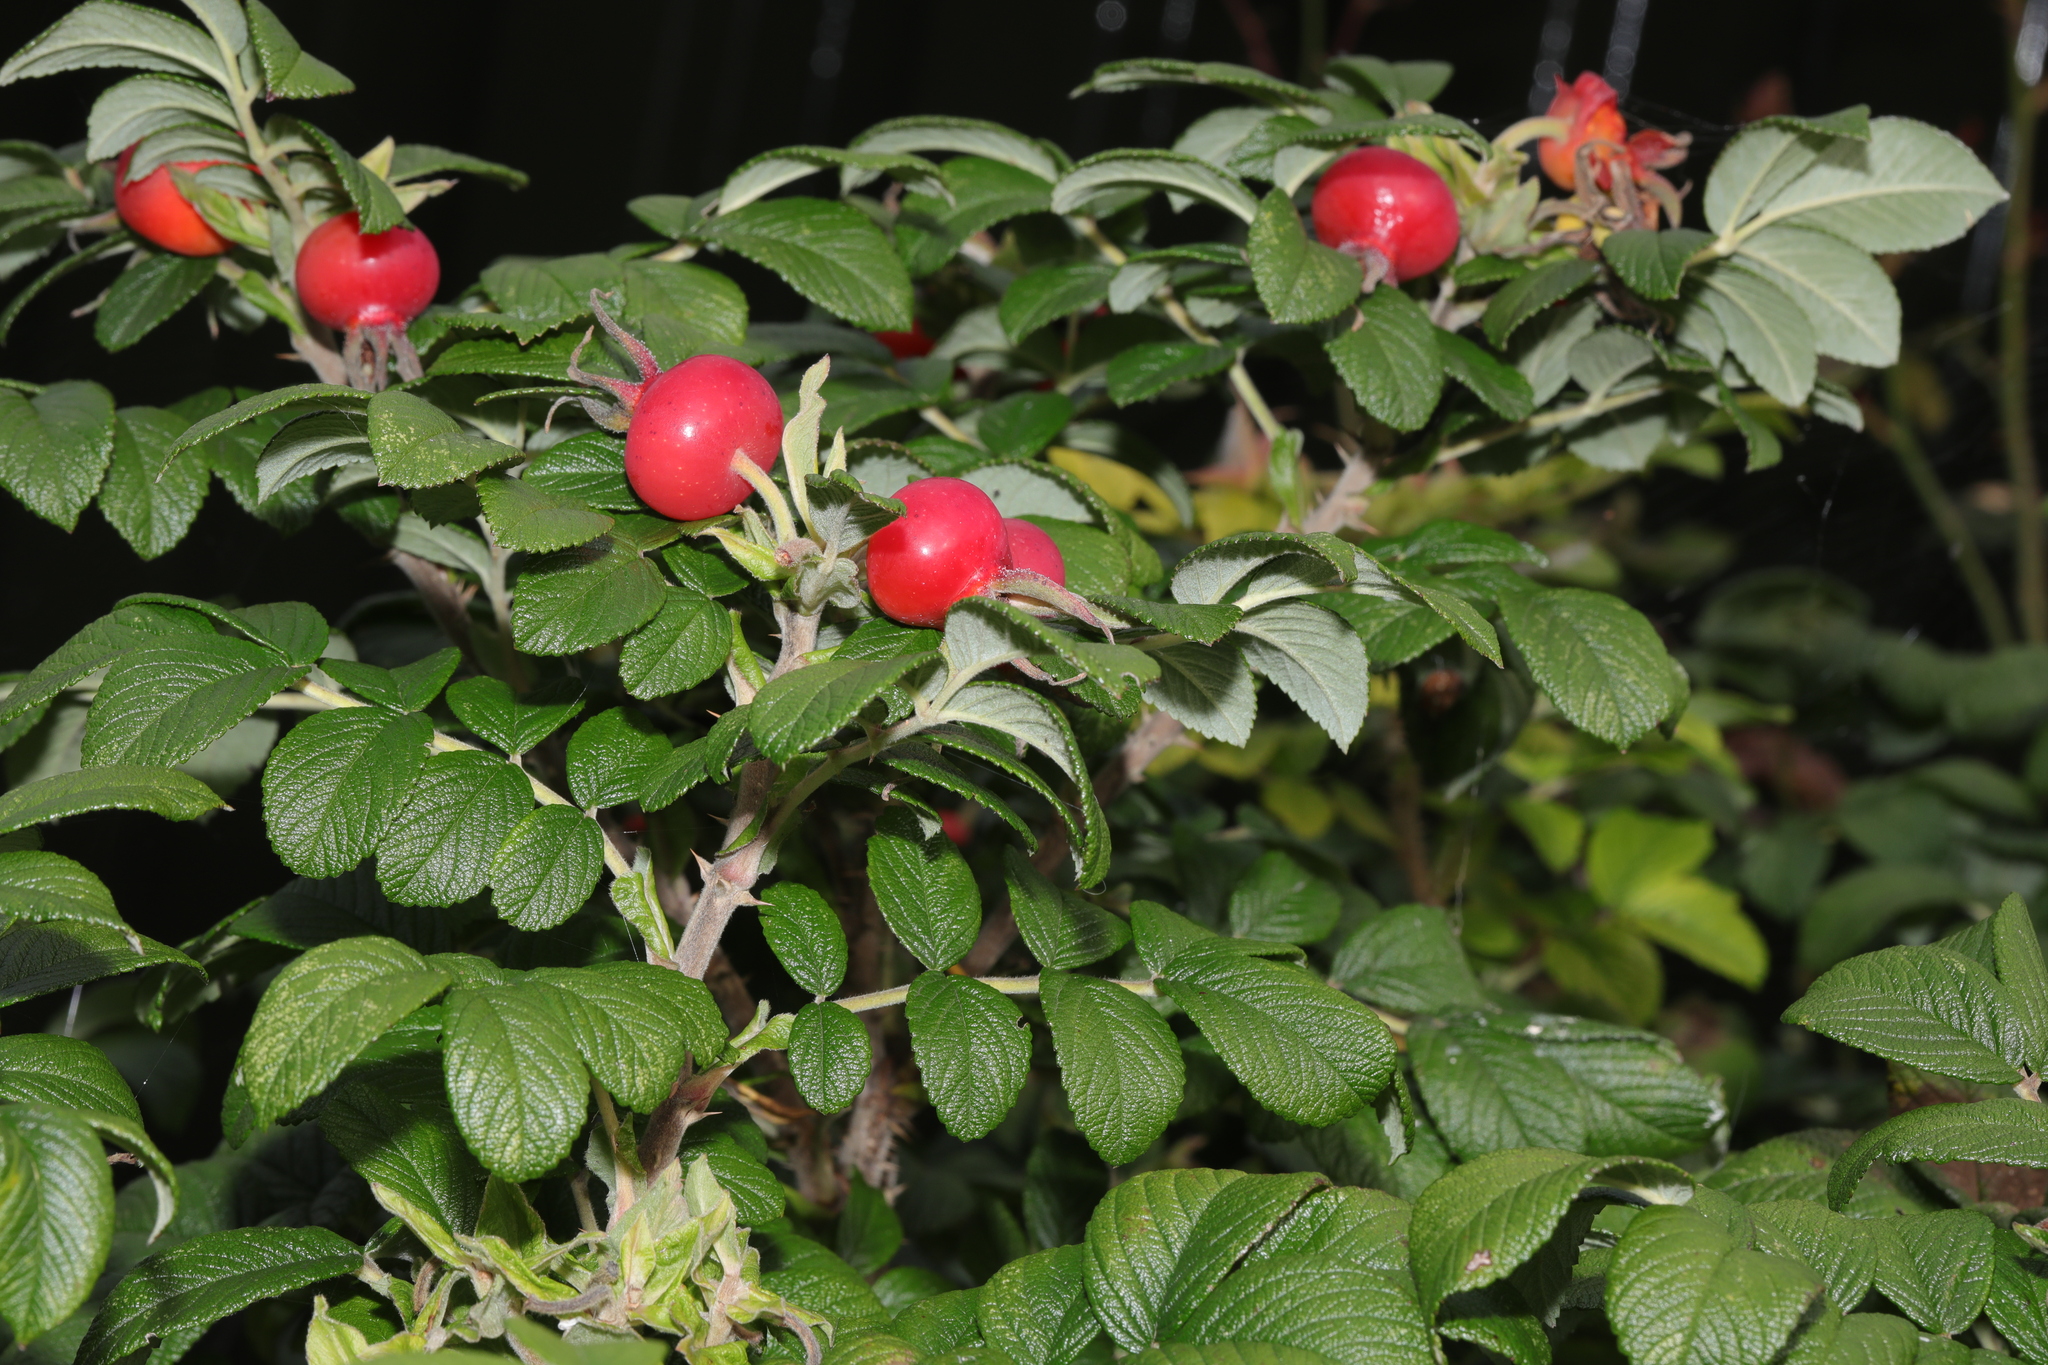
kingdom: Plantae
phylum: Tracheophyta
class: Magnoliopsida
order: Rosales
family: Rosaceae
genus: Rosa
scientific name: Rosa rugosa
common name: Japanese rose
